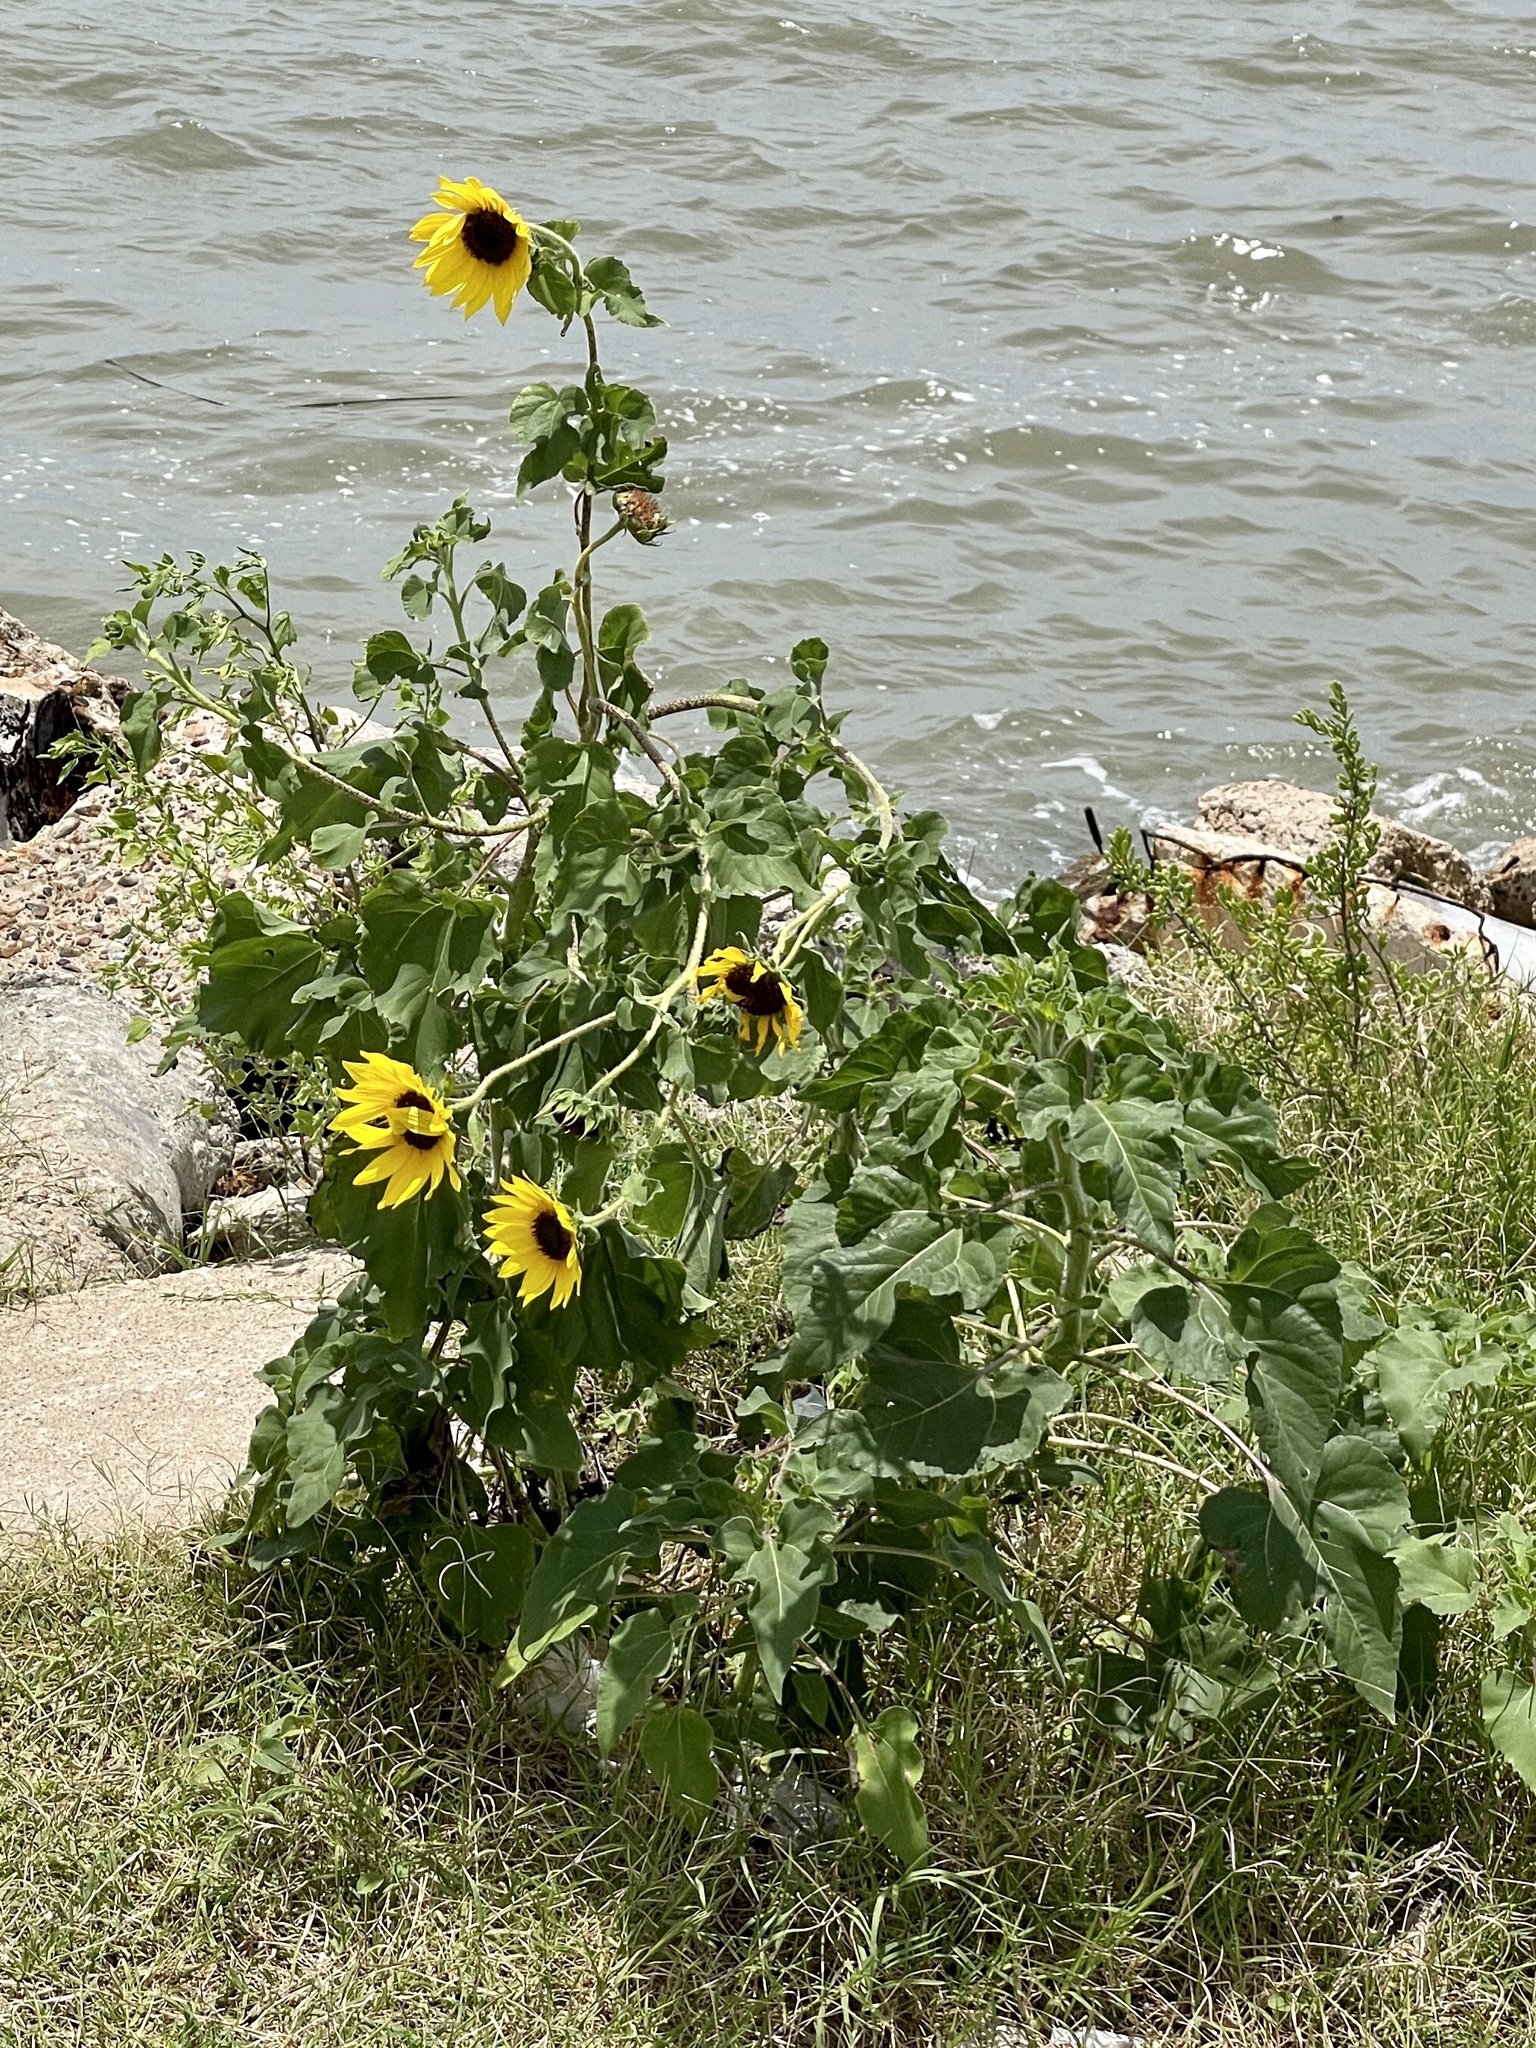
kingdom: Plantae
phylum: Tracheophyta
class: Magnoliopsida
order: Asterales
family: Asteraceae
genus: Helianthus
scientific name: Helianthus annuus
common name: Sunflower
